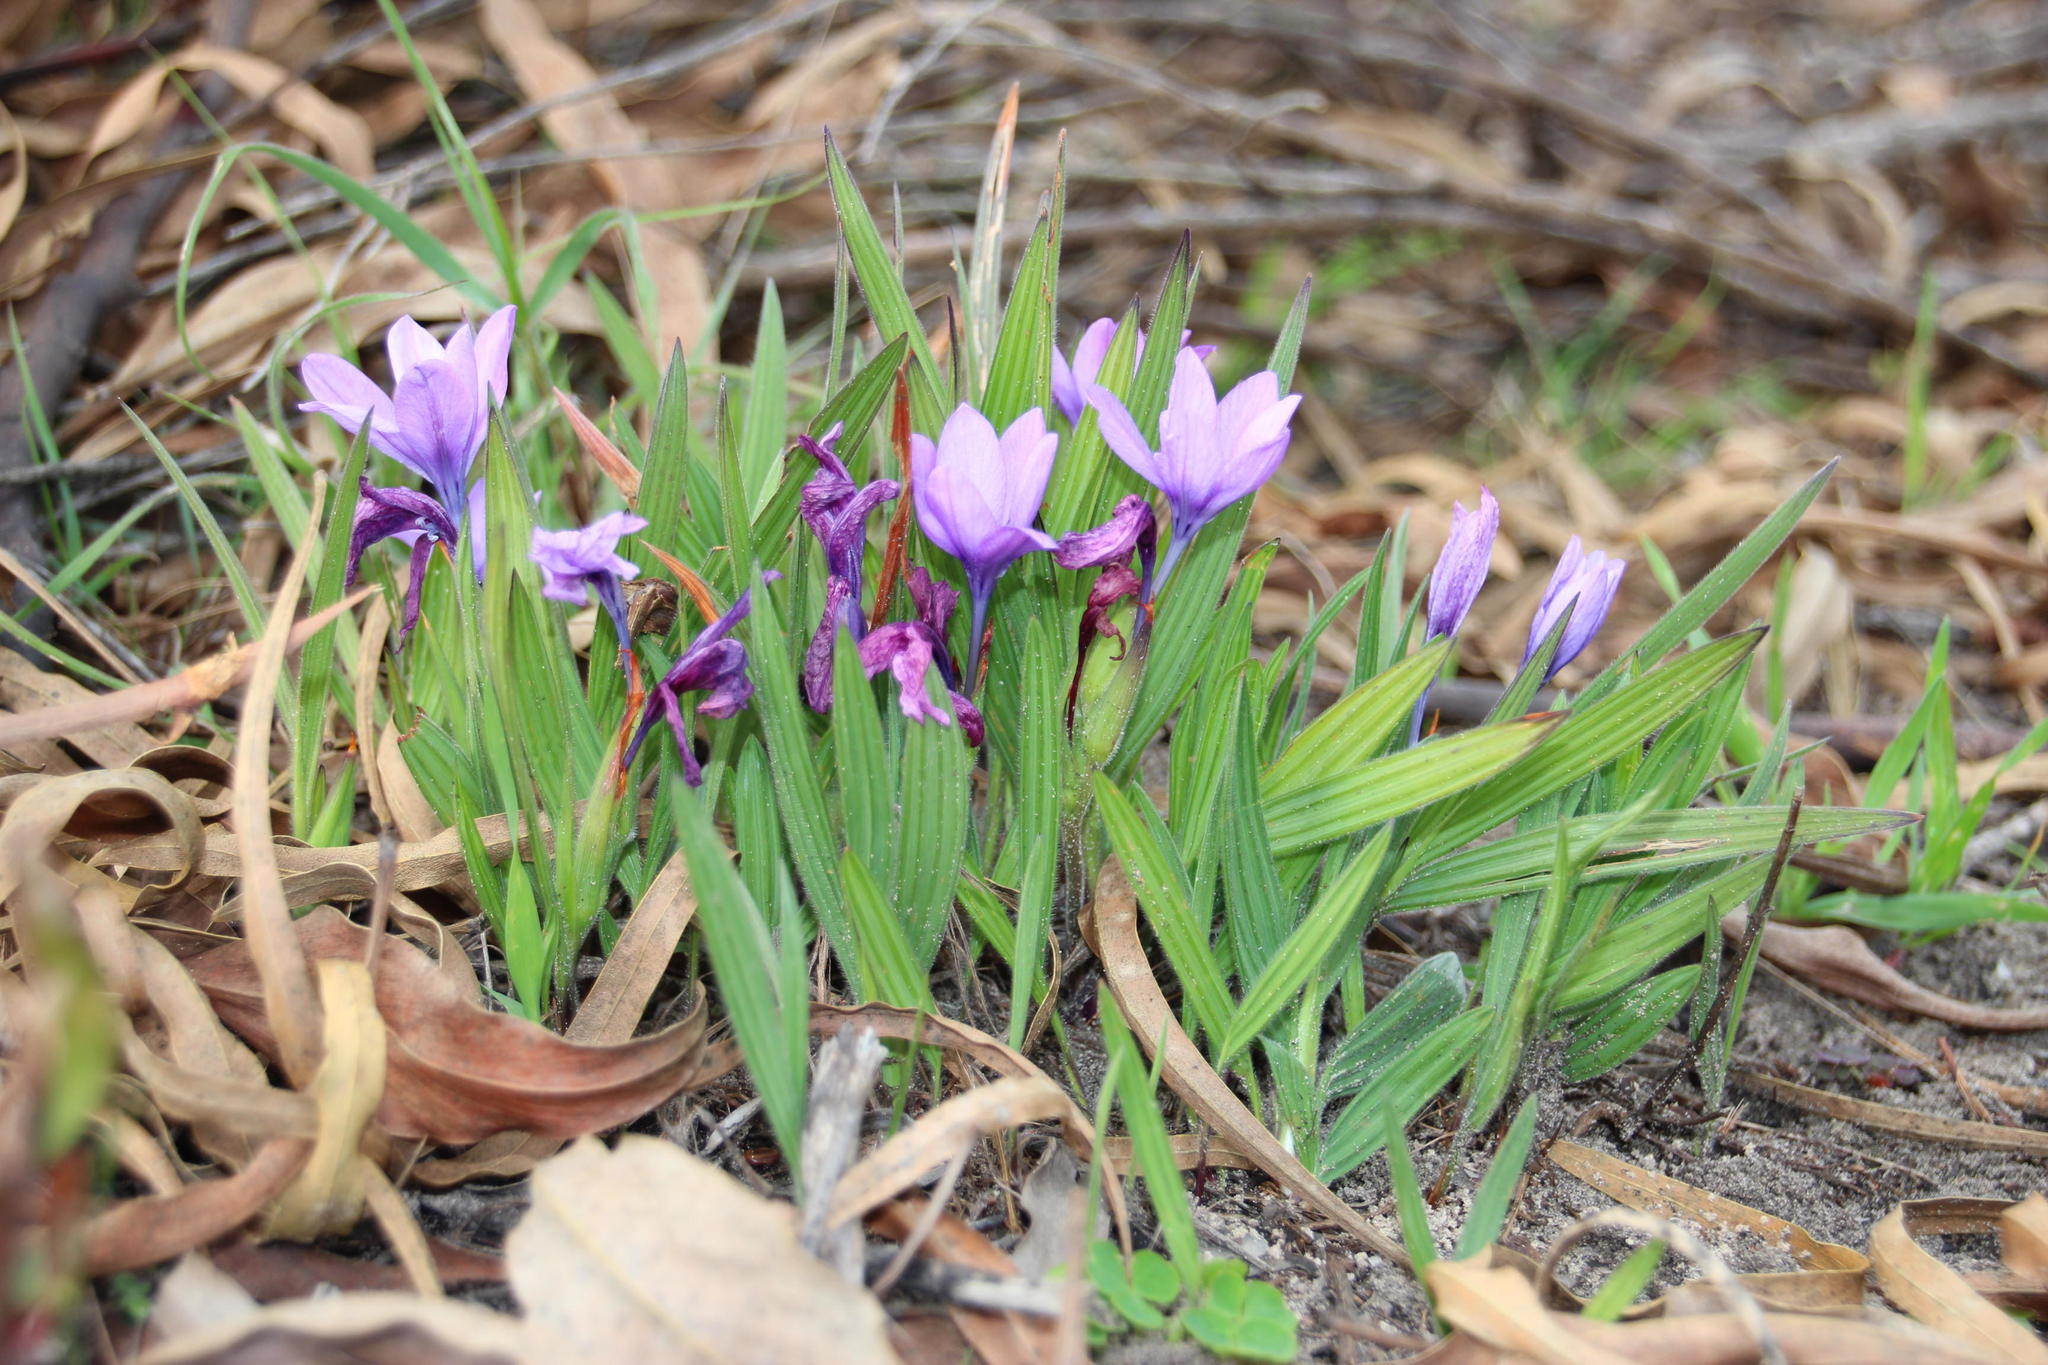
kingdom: Plantae
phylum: Tracheophyta
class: Liliopsida
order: Asparagales
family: Iridaceae
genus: Babiana
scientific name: Babiana villosula
